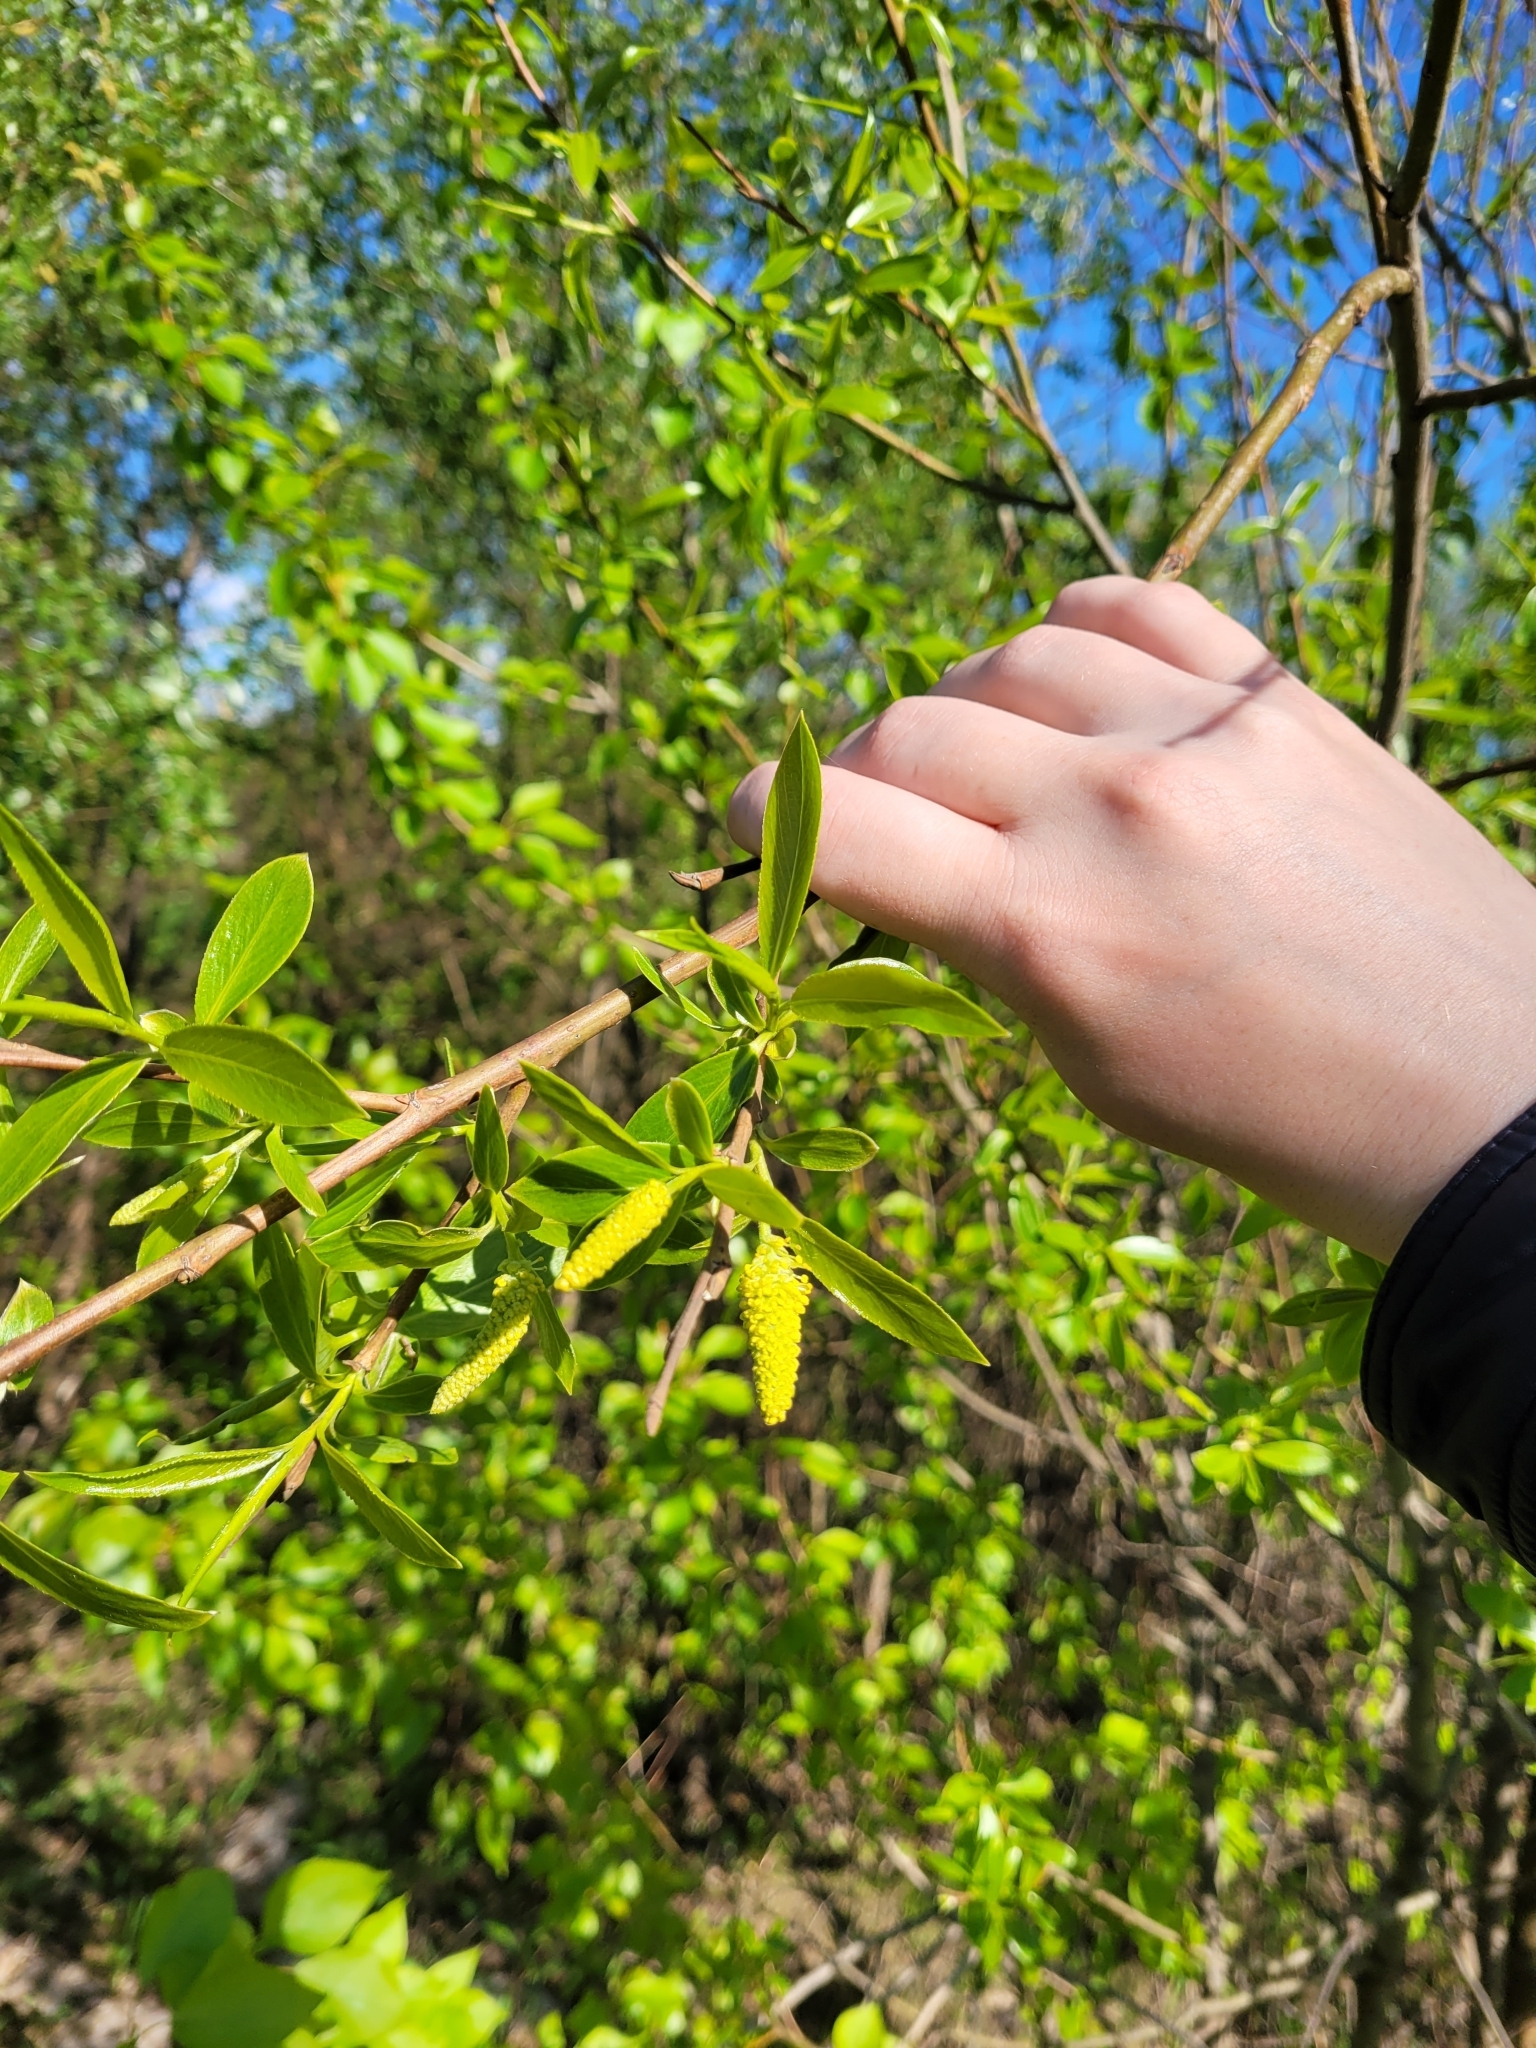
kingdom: Plantae
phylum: Tracheophyta
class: Magnoliopsida
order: Malpighiales
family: Salicaceae
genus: Salix
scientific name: Salix fragilis
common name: Crack willow
